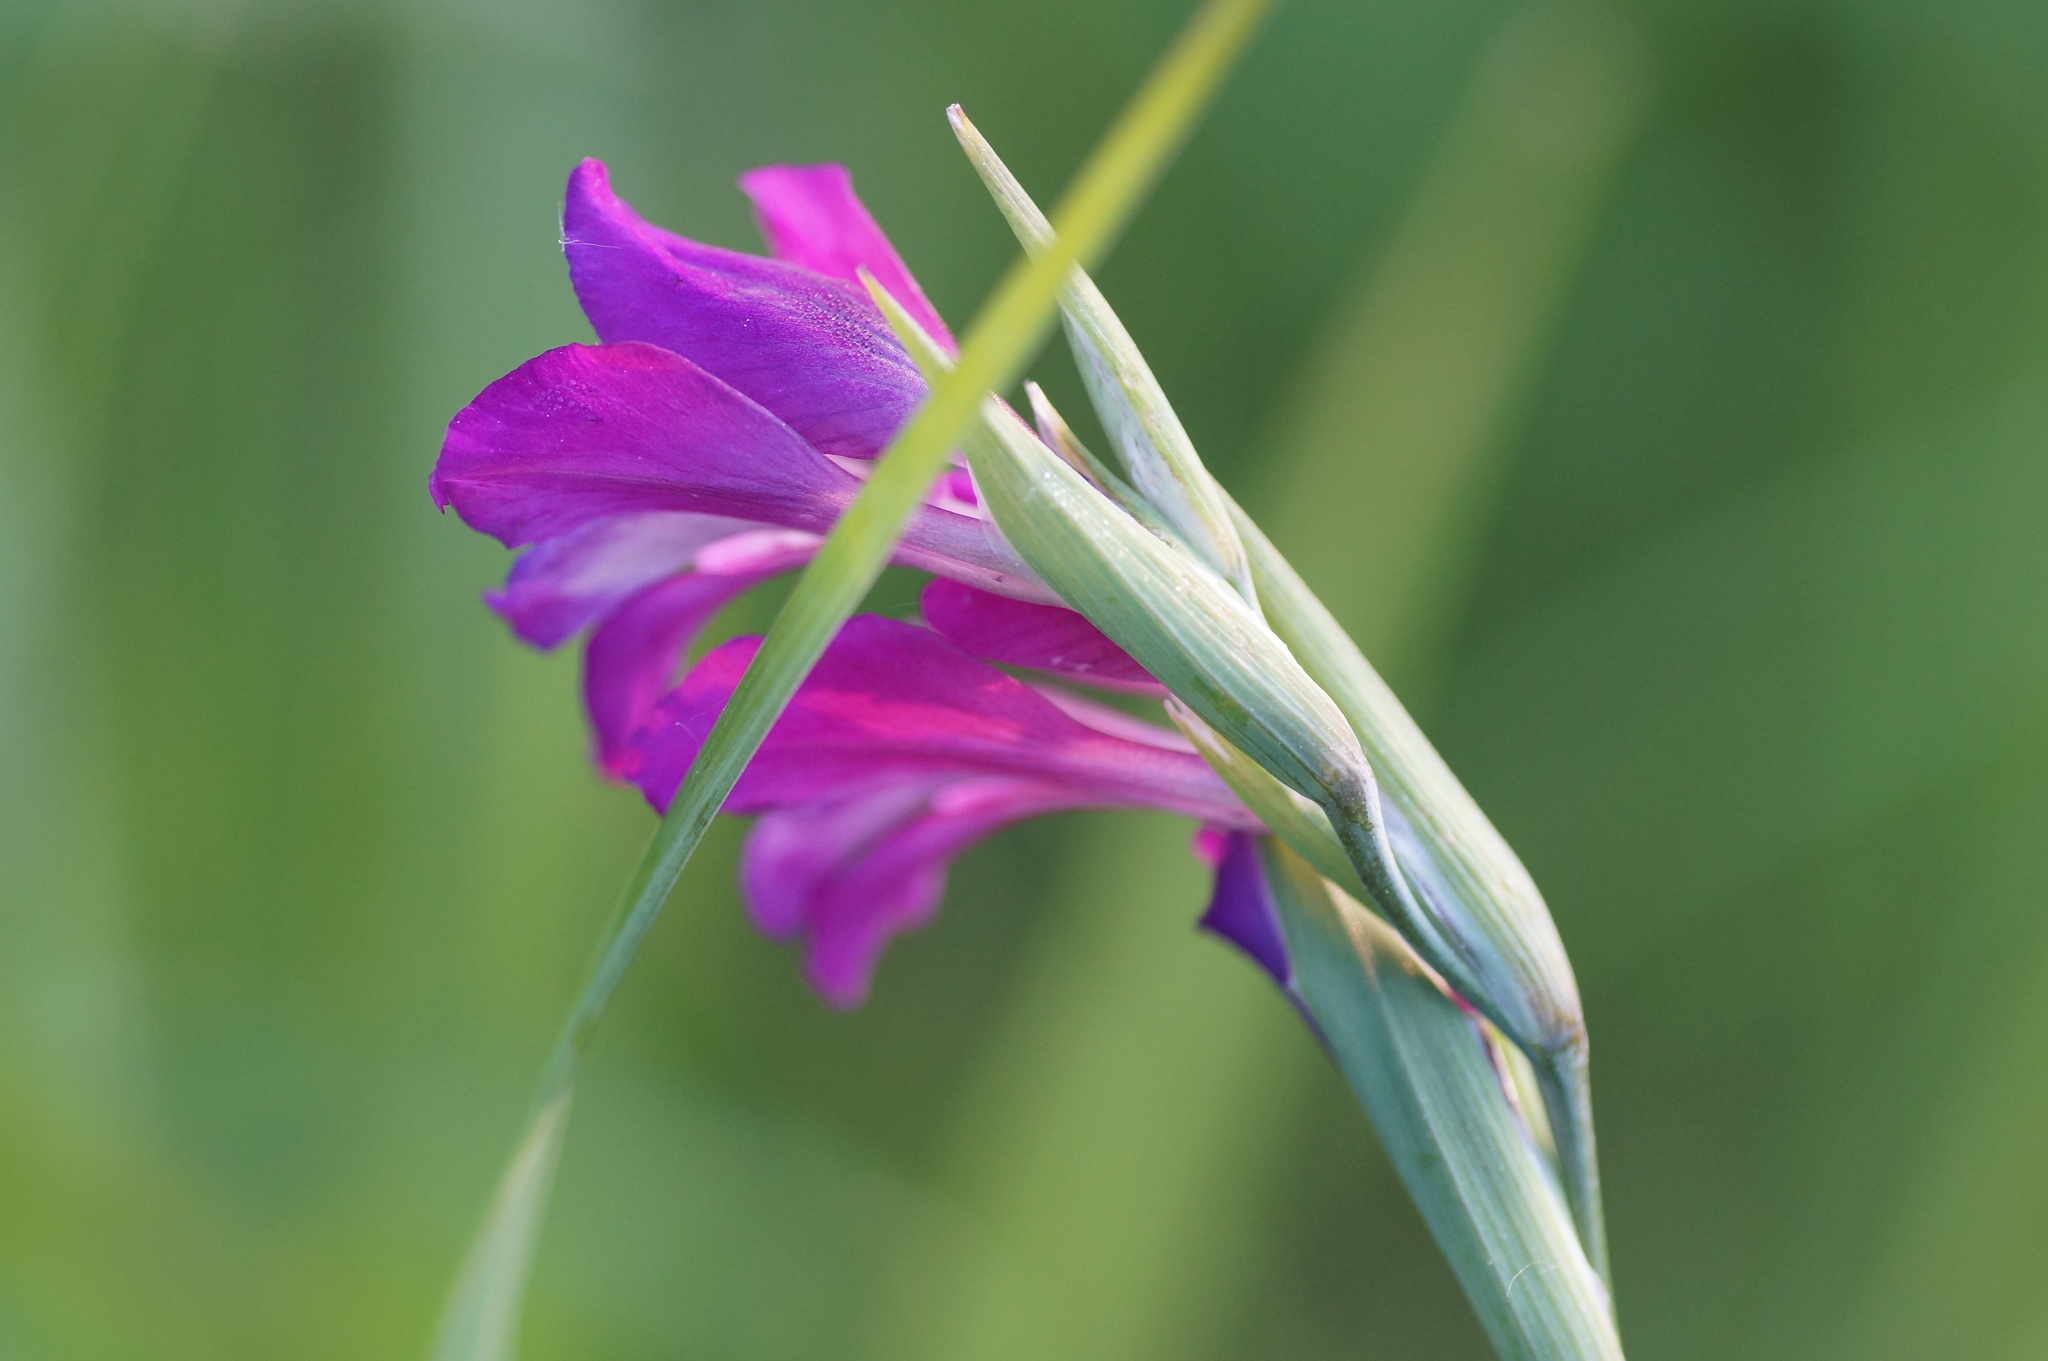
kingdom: Plantae
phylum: Tracheophyta
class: Liliopsida
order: Asparagales
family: Iridaceae
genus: Gladiolus
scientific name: Gladiolus imbricatus
